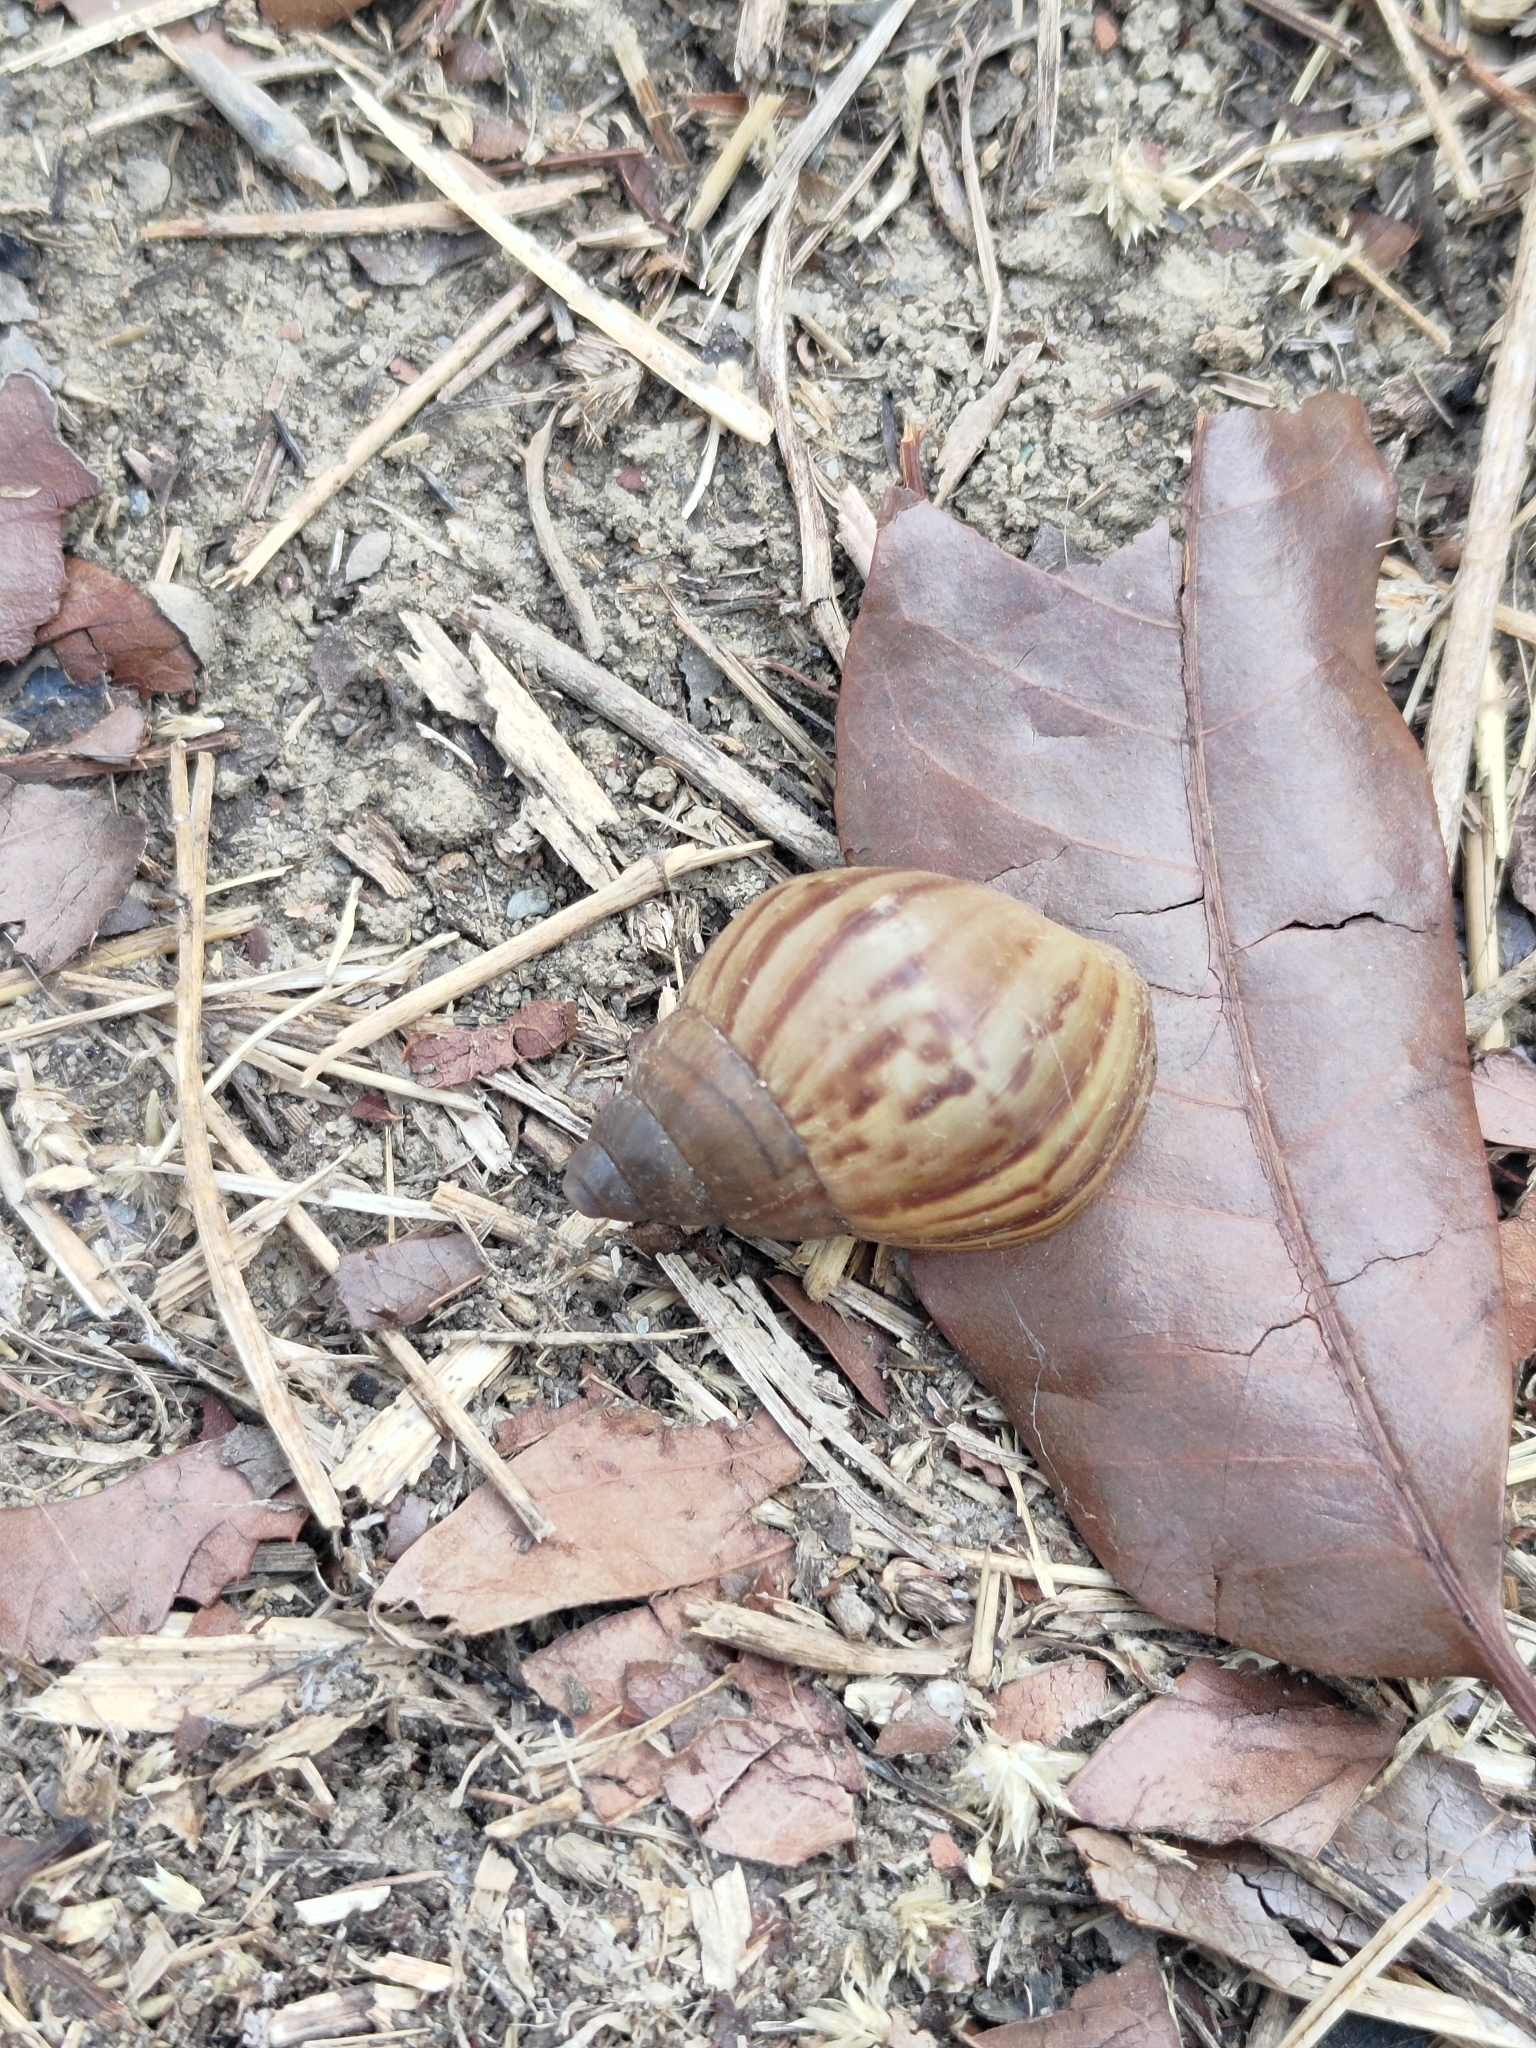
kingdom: Animalia
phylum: Mollusca
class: Gastropoda
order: Stylommatophora
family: Achatinidae
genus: Lissachatina
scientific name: Lissachatina fulica
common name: Giant african snail
